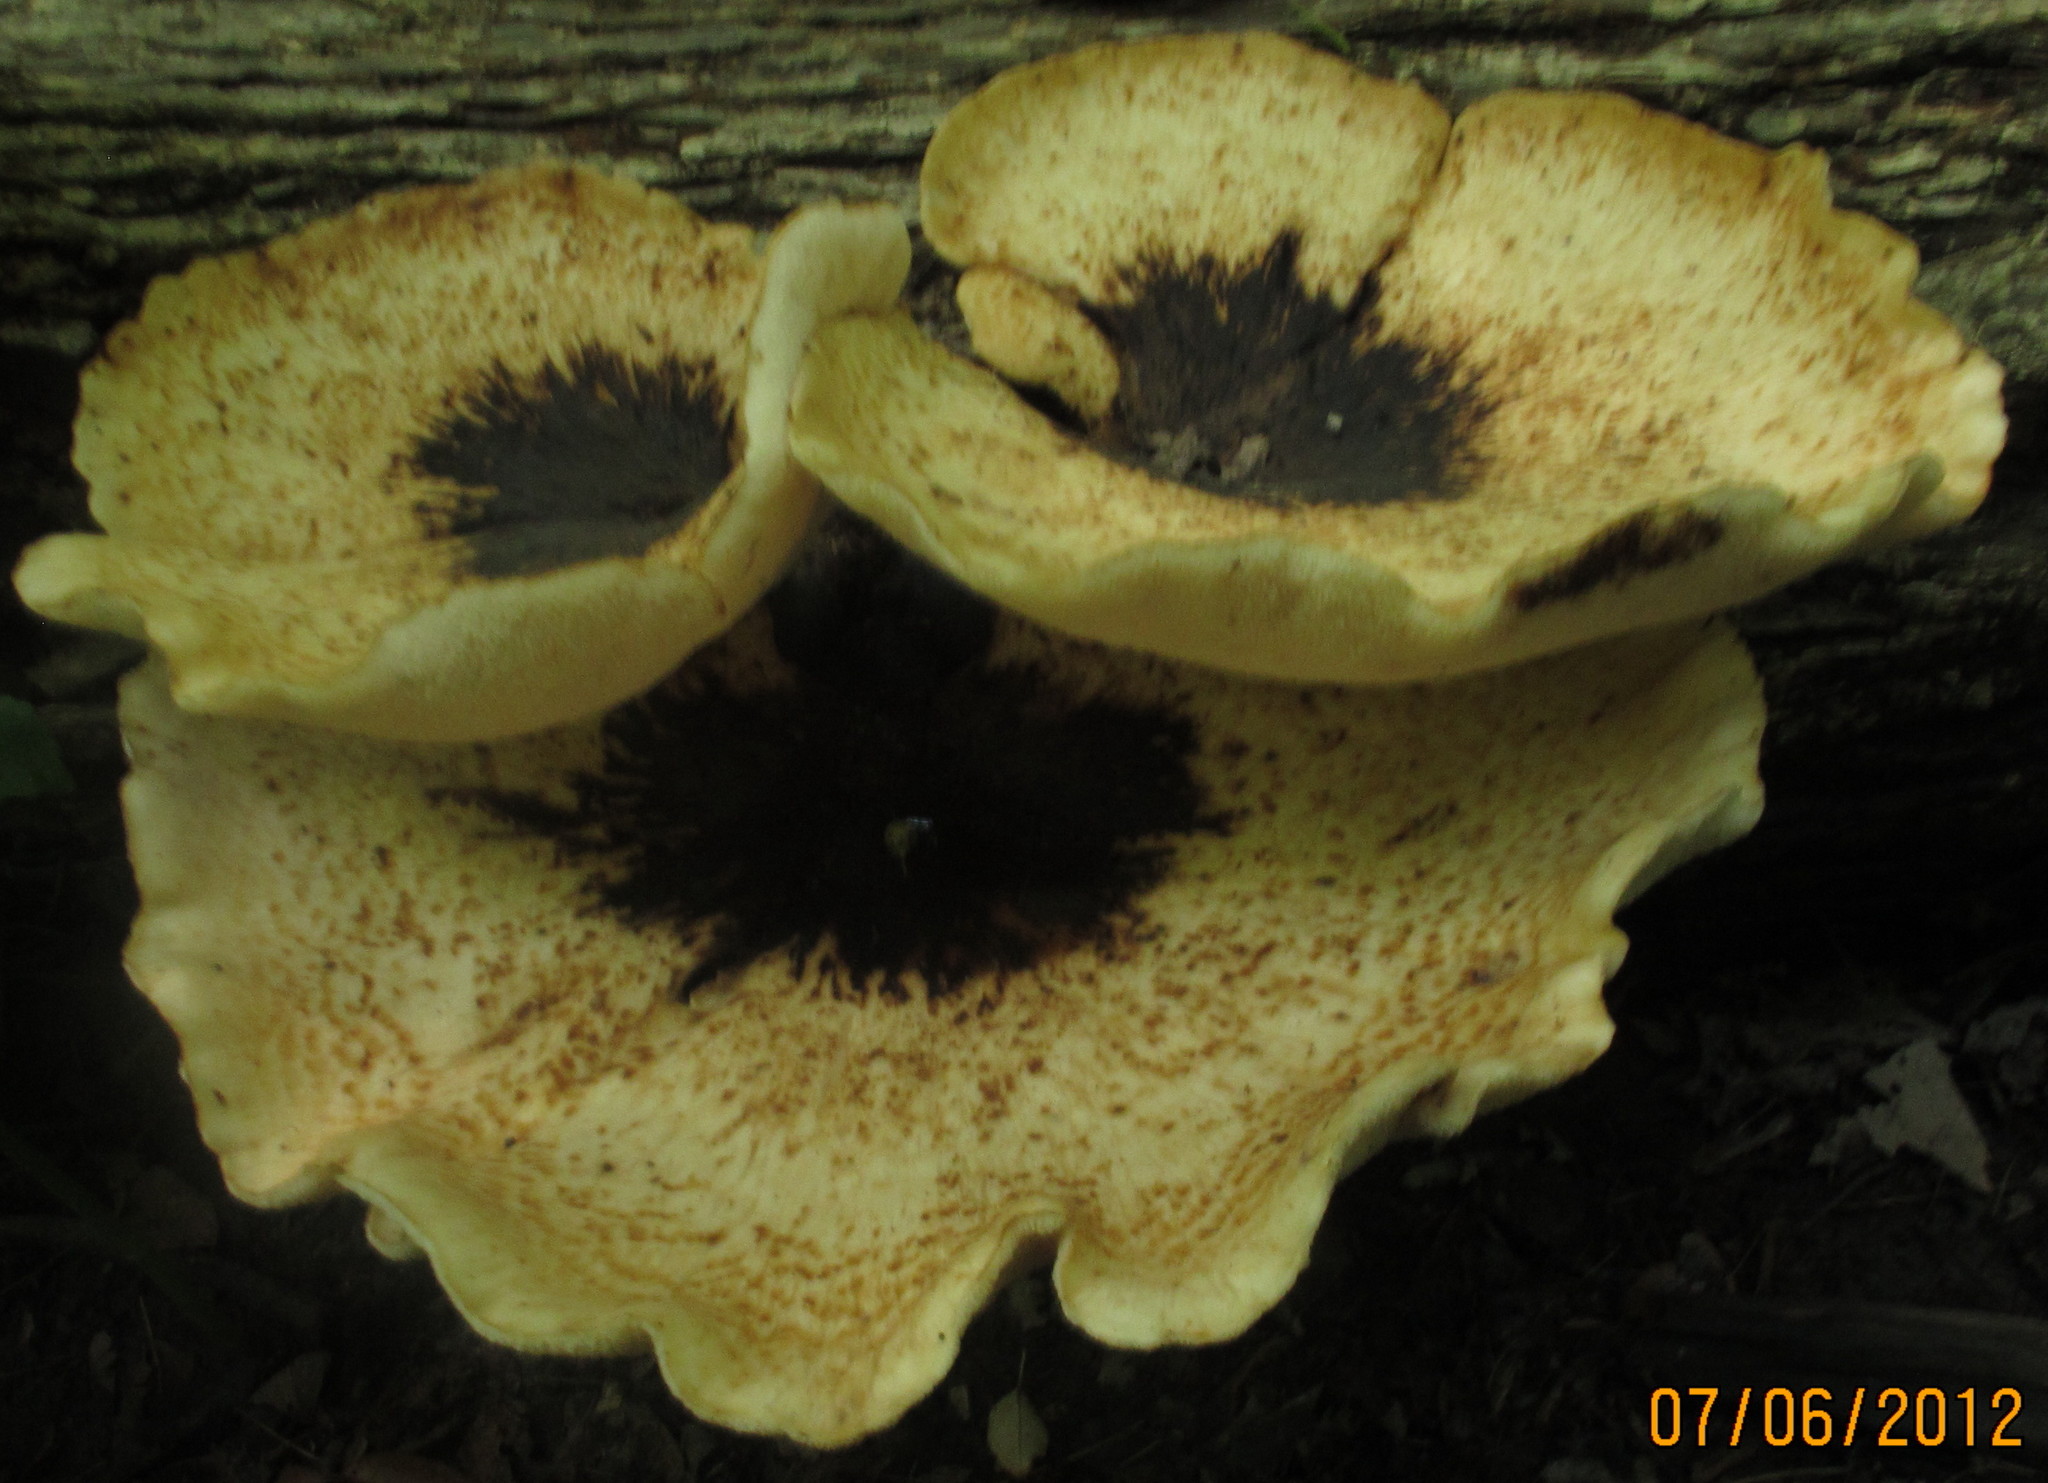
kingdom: Fungi
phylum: Basidiomycota
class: Agaricomycetes
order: Polyporales
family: Polyporaceae
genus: Cerioporus
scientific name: Cerioporus squamosus
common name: Dryad's saddle
